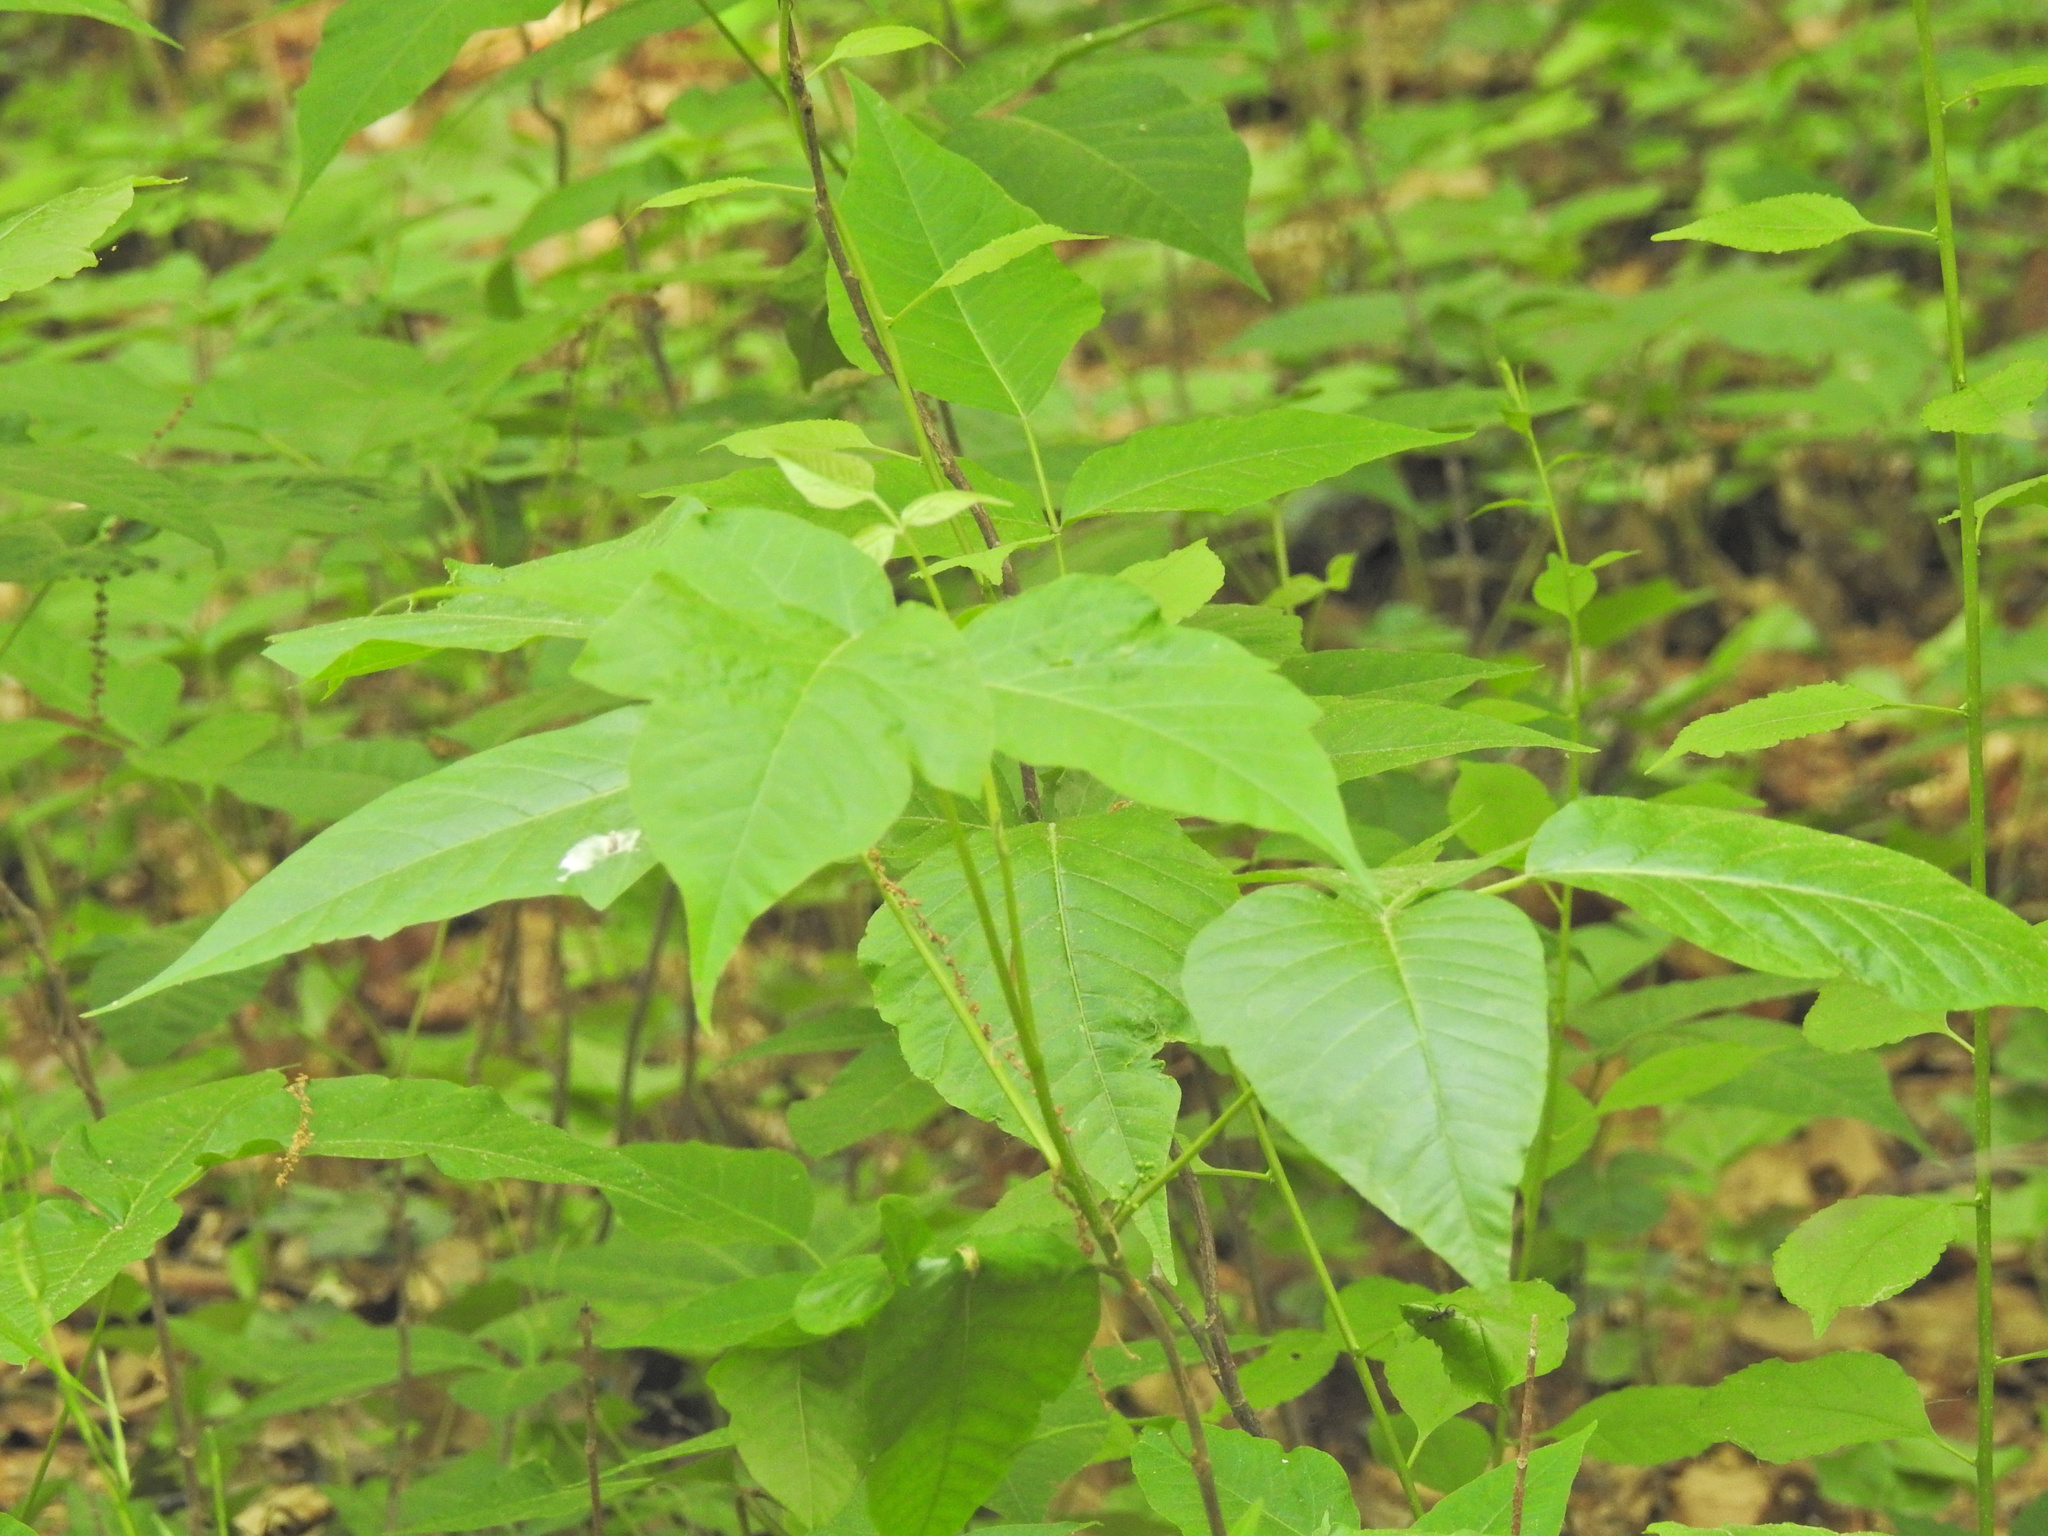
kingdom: Plantae
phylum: Tracheophyta
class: Magnoliopsida
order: Sapindales
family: Anacardiaceae
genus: Toxicodendron
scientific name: Toxicodendron radicans
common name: Poison ivy
